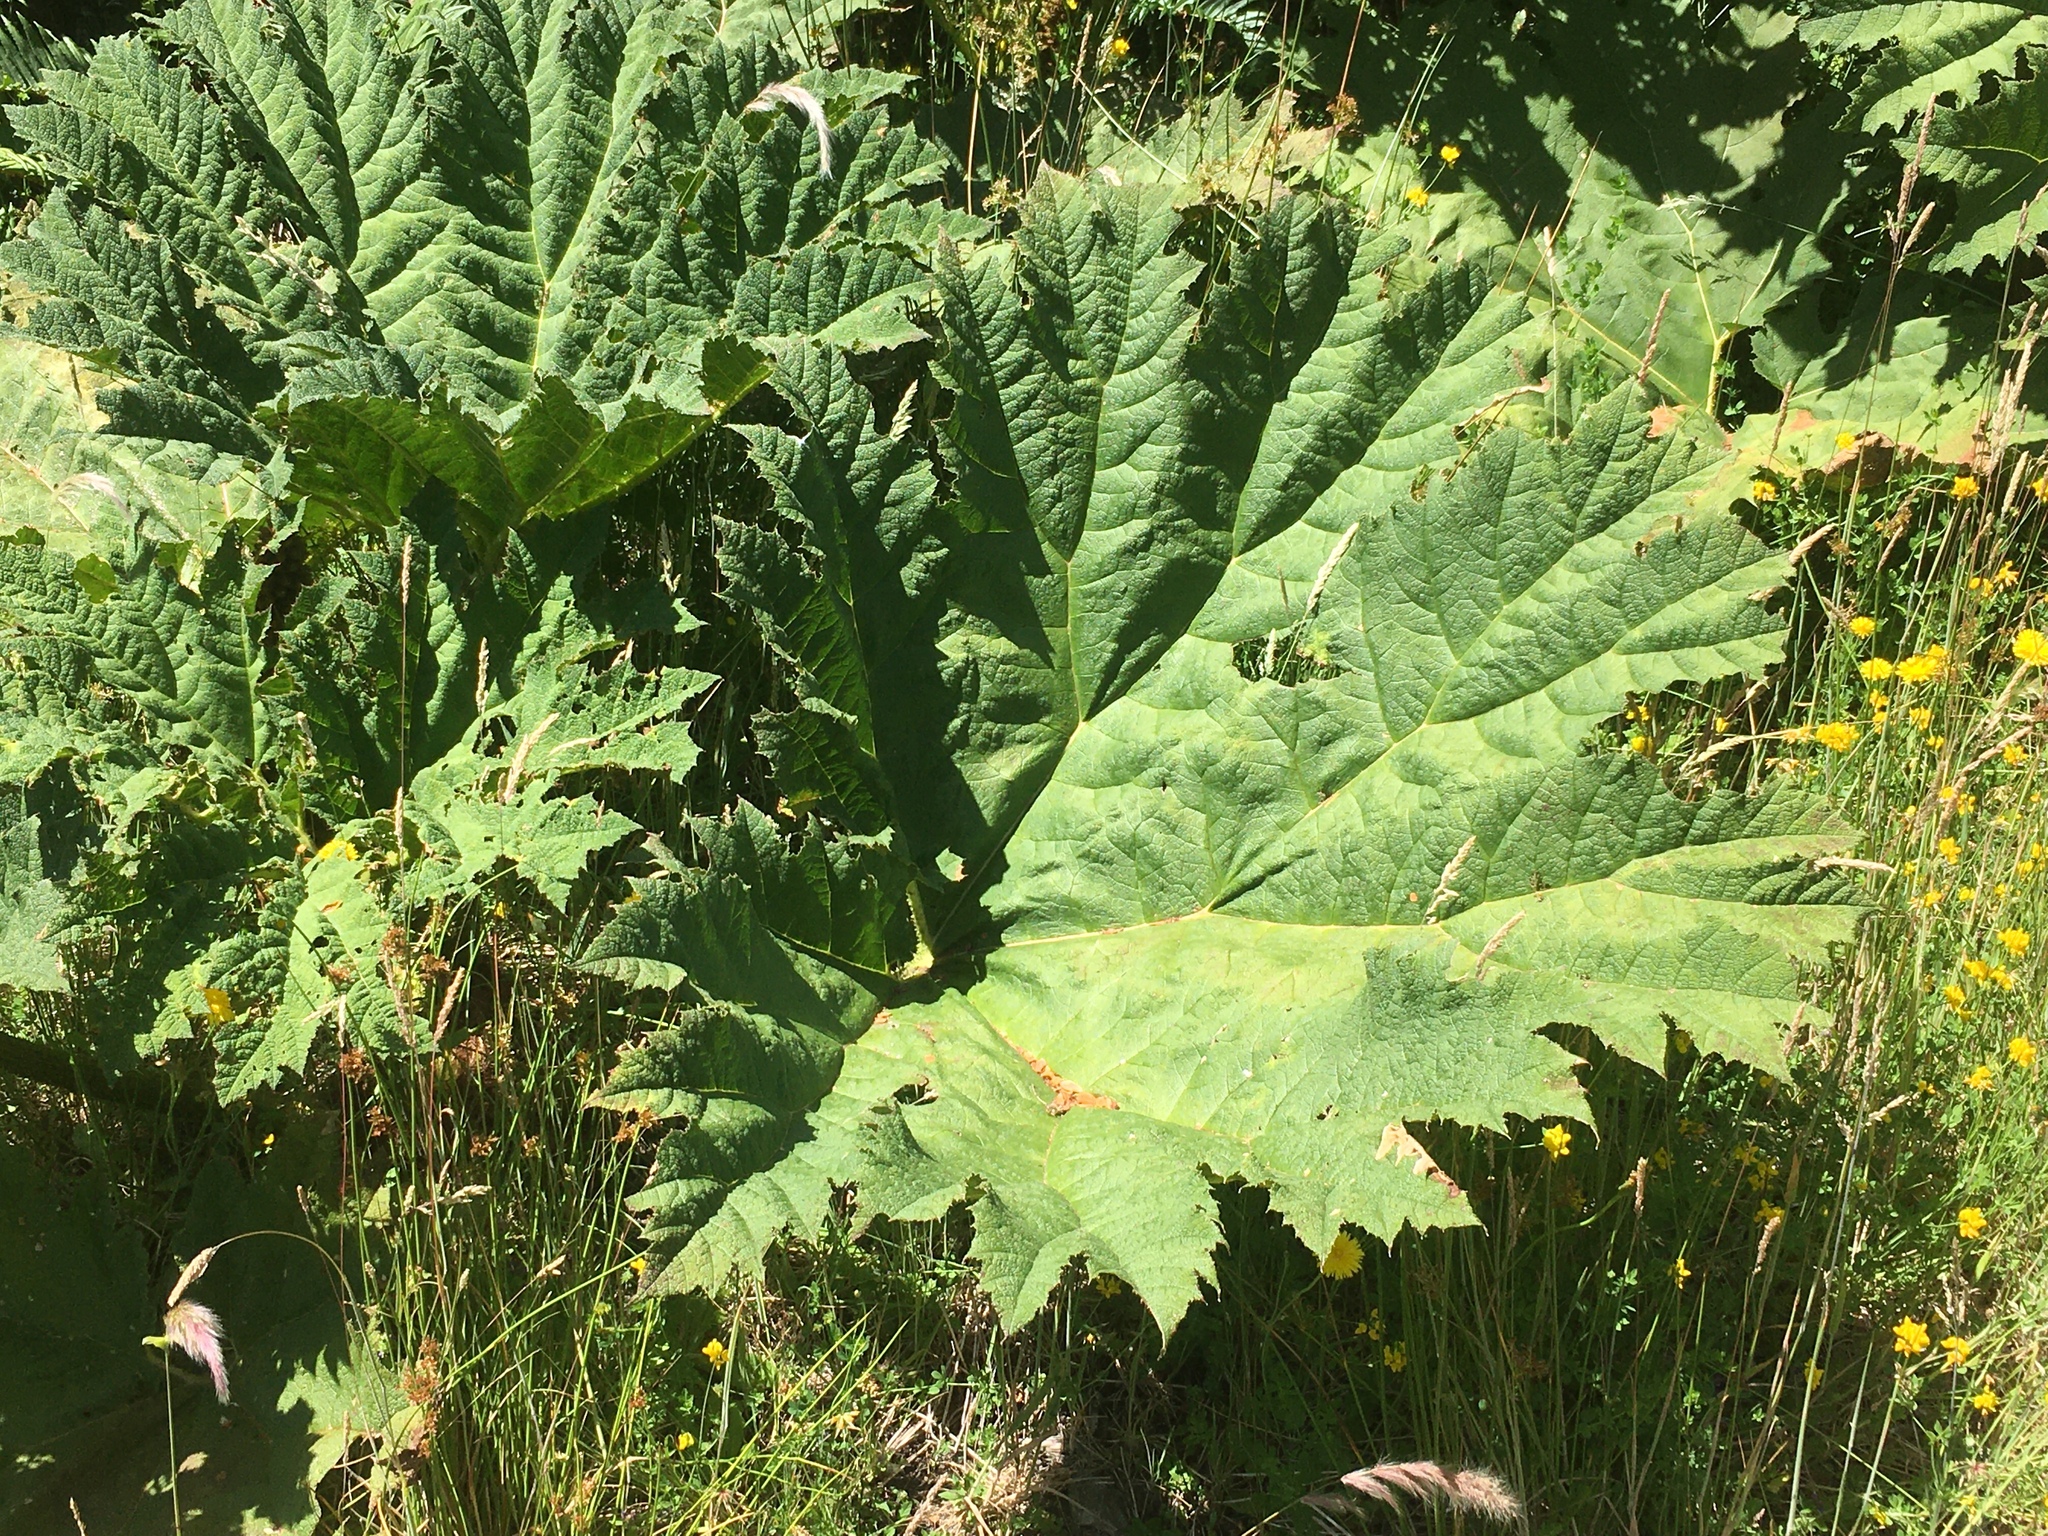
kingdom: Plantae
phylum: Tracheophyta
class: Magnoliopsida
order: Gunnerales
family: Gunneraceae
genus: Gunnera
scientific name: Gunnera tinctoria
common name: Giant-rhubarb
